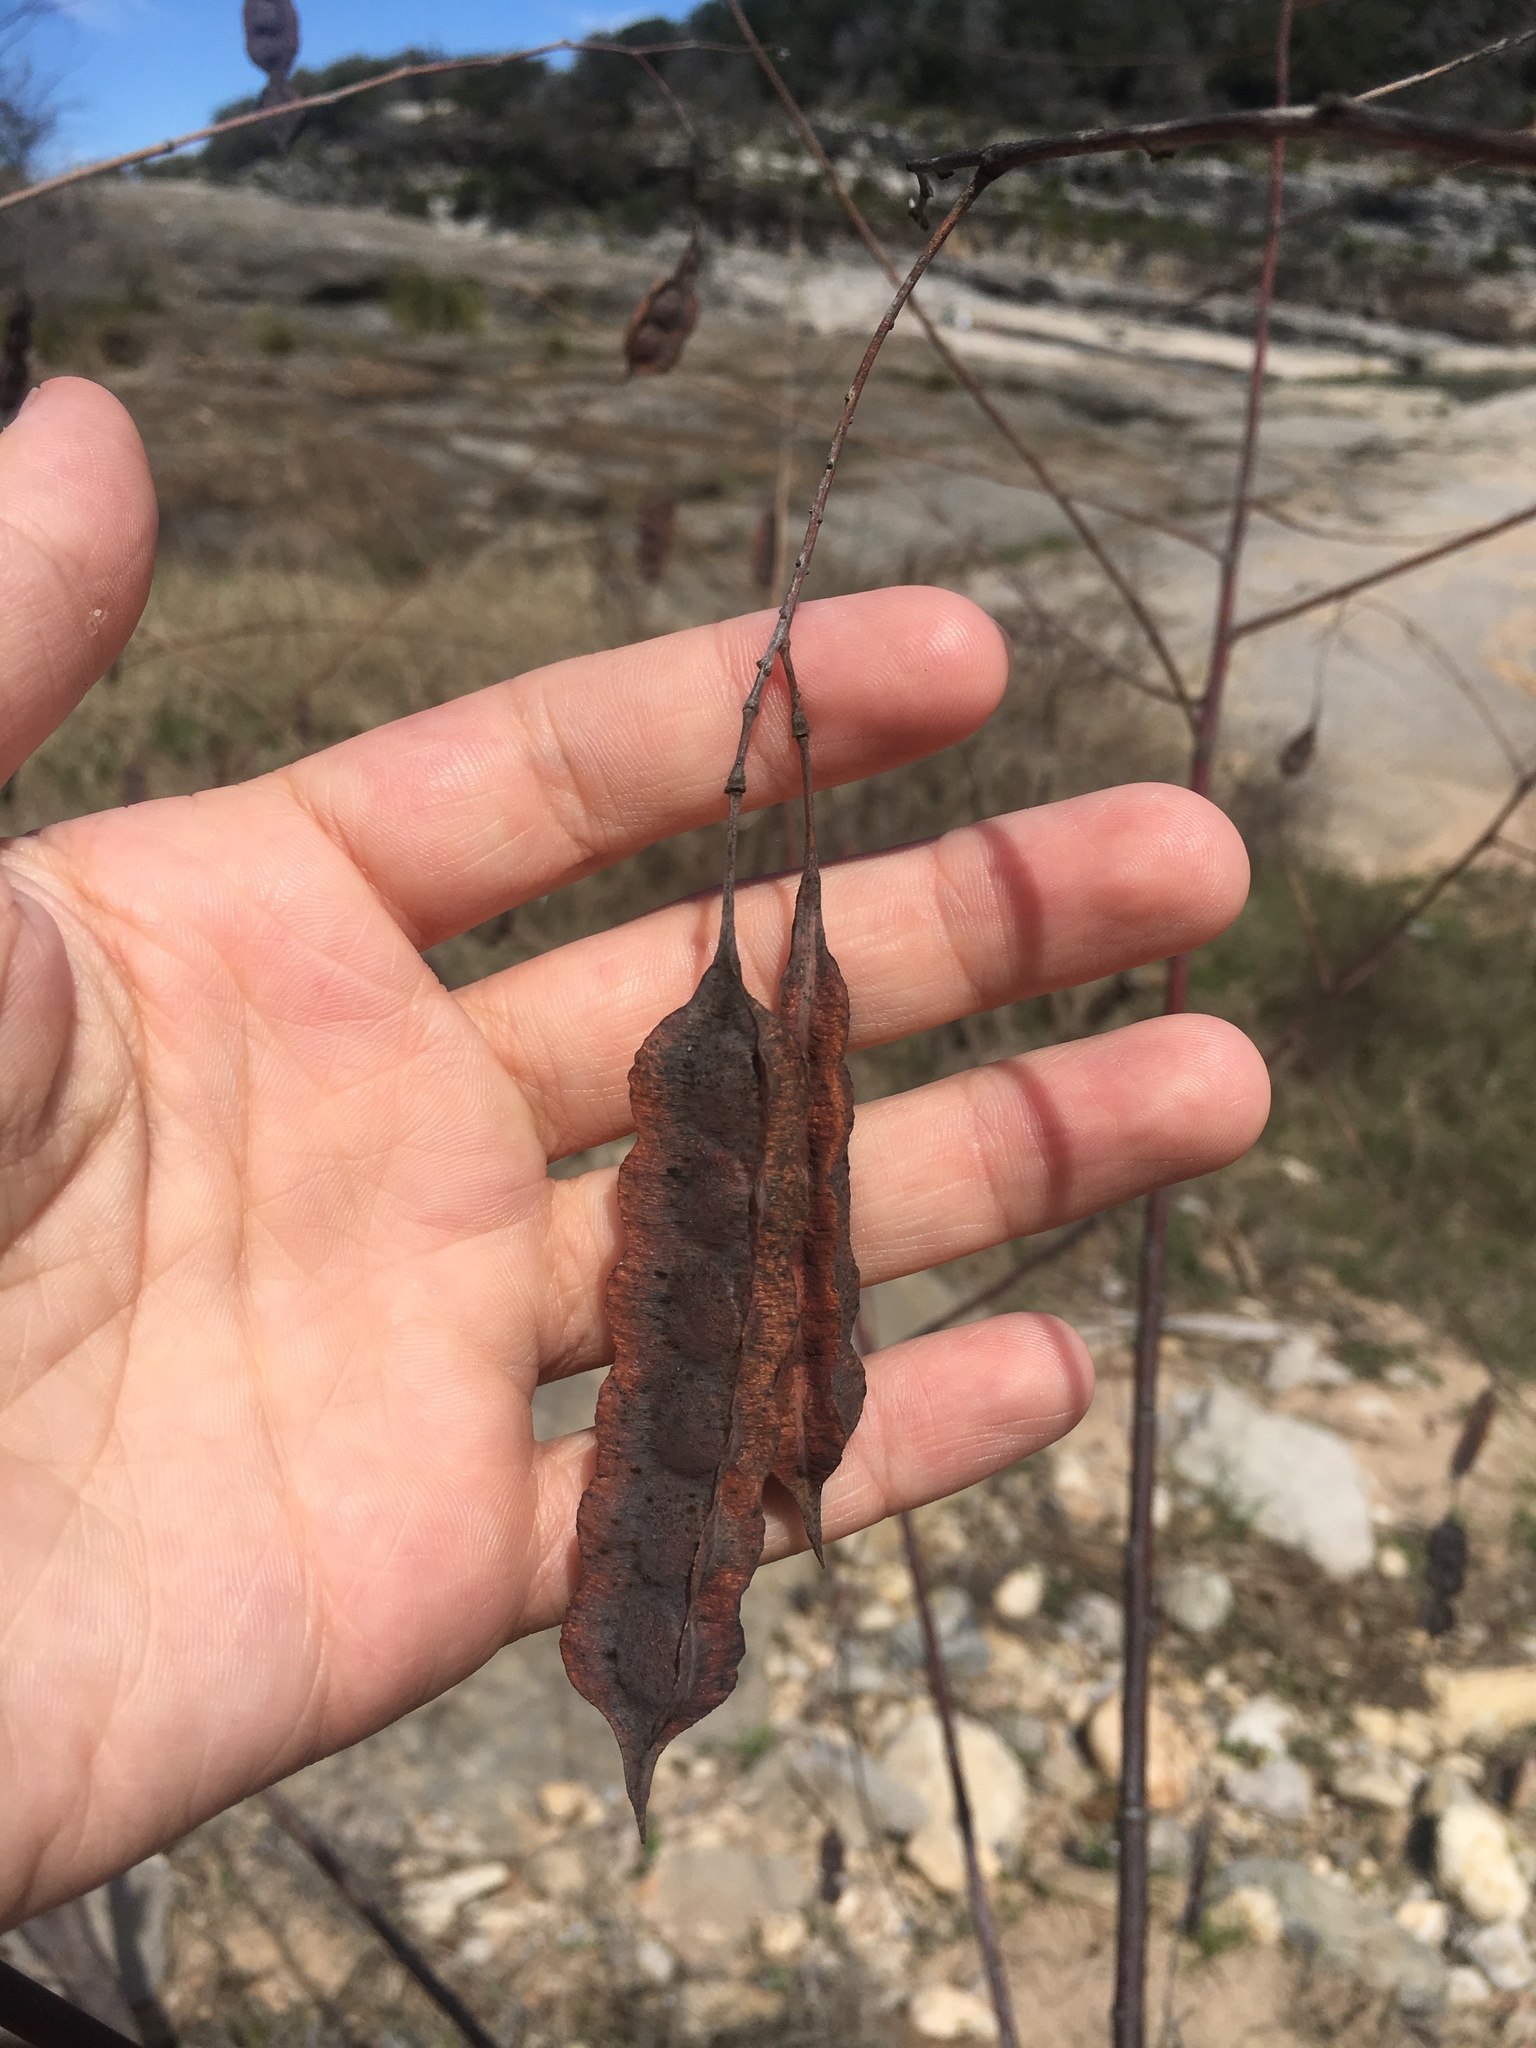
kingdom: Plantae
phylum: Tracheophyta
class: Magnoliopsida
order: Fabales
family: Fabaceae
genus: Sesbania
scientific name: Sesbania drummondii
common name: Poison-bean
